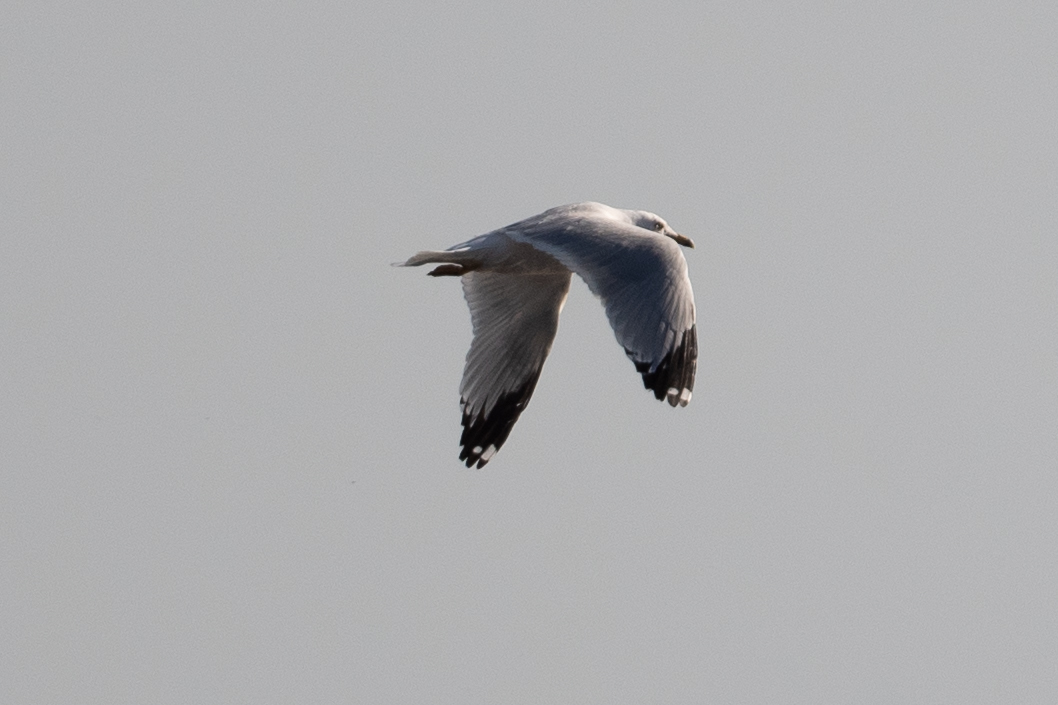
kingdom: Animalia
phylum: Chordata
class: Aves
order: Charadriiformes
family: Laridae
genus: Larus
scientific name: Larus delawarensis
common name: Ring-billed gull
